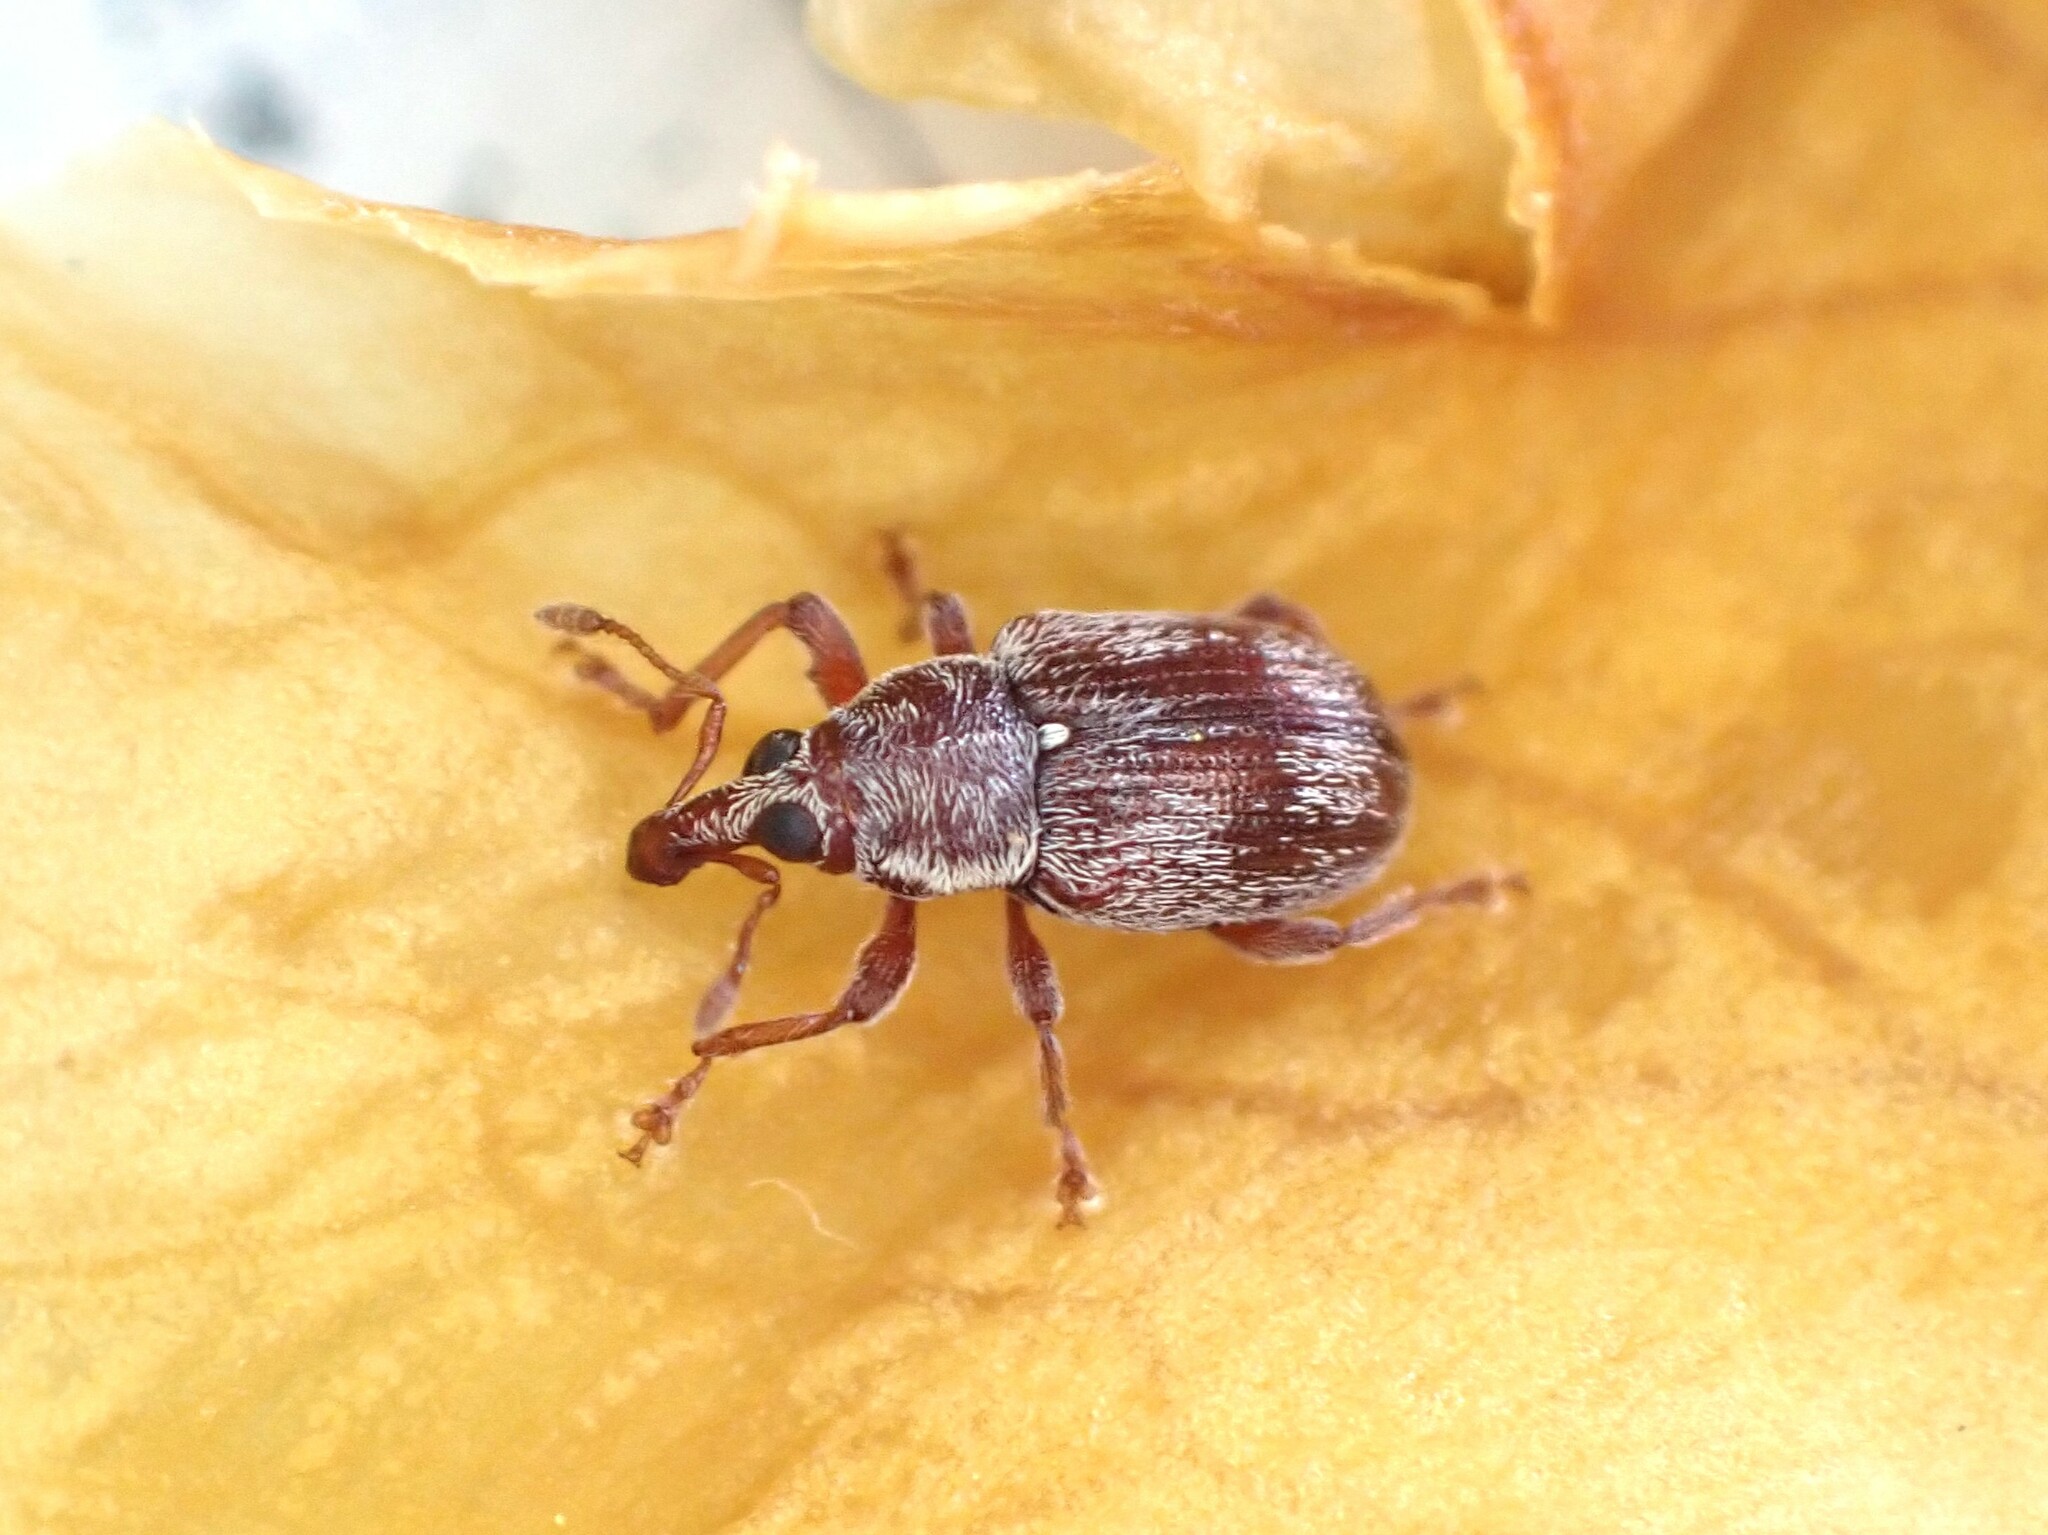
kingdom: Animalia
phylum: Arthropoda
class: Insecta
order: Coleoptera
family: Curculionidae
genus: Neomycta
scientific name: Neomycta rubida
